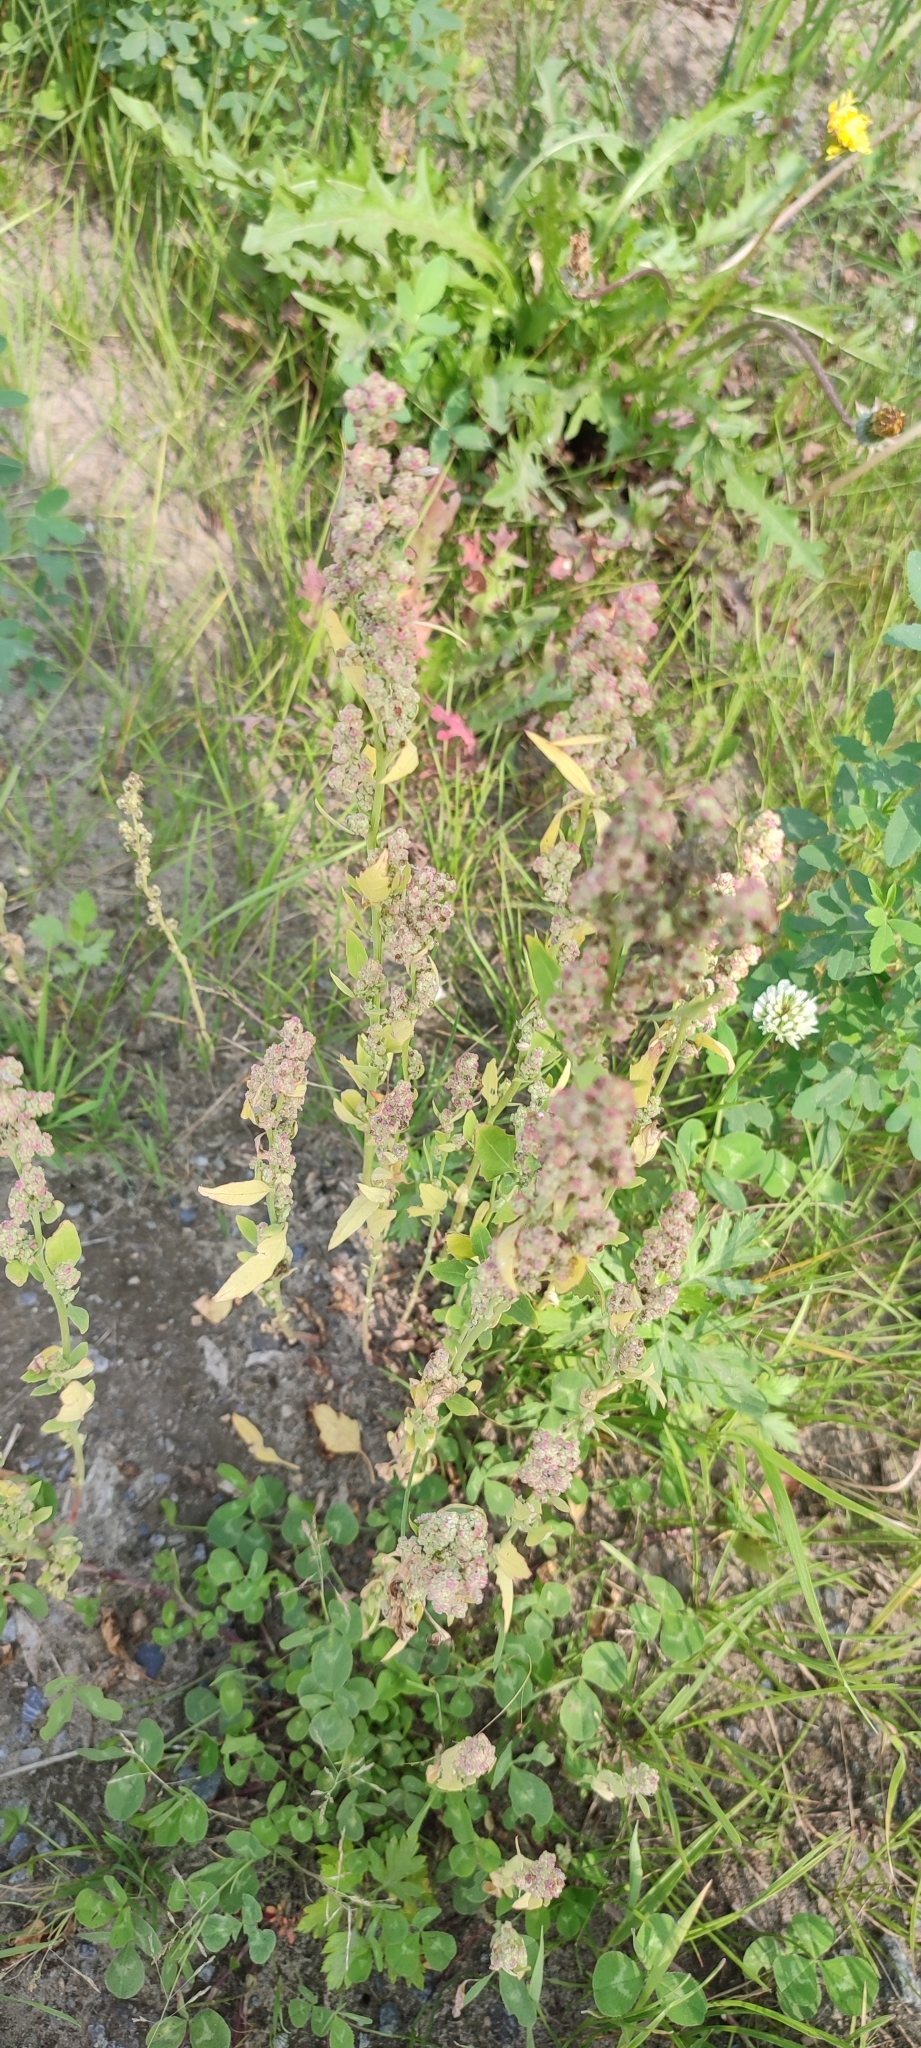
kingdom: Plantae
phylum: Tracheophyta
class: Magnoliopsida
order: Caryophyllales
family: Amaranthaceae
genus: Chenopodium
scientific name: Chenopodium album
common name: Fat-hen
